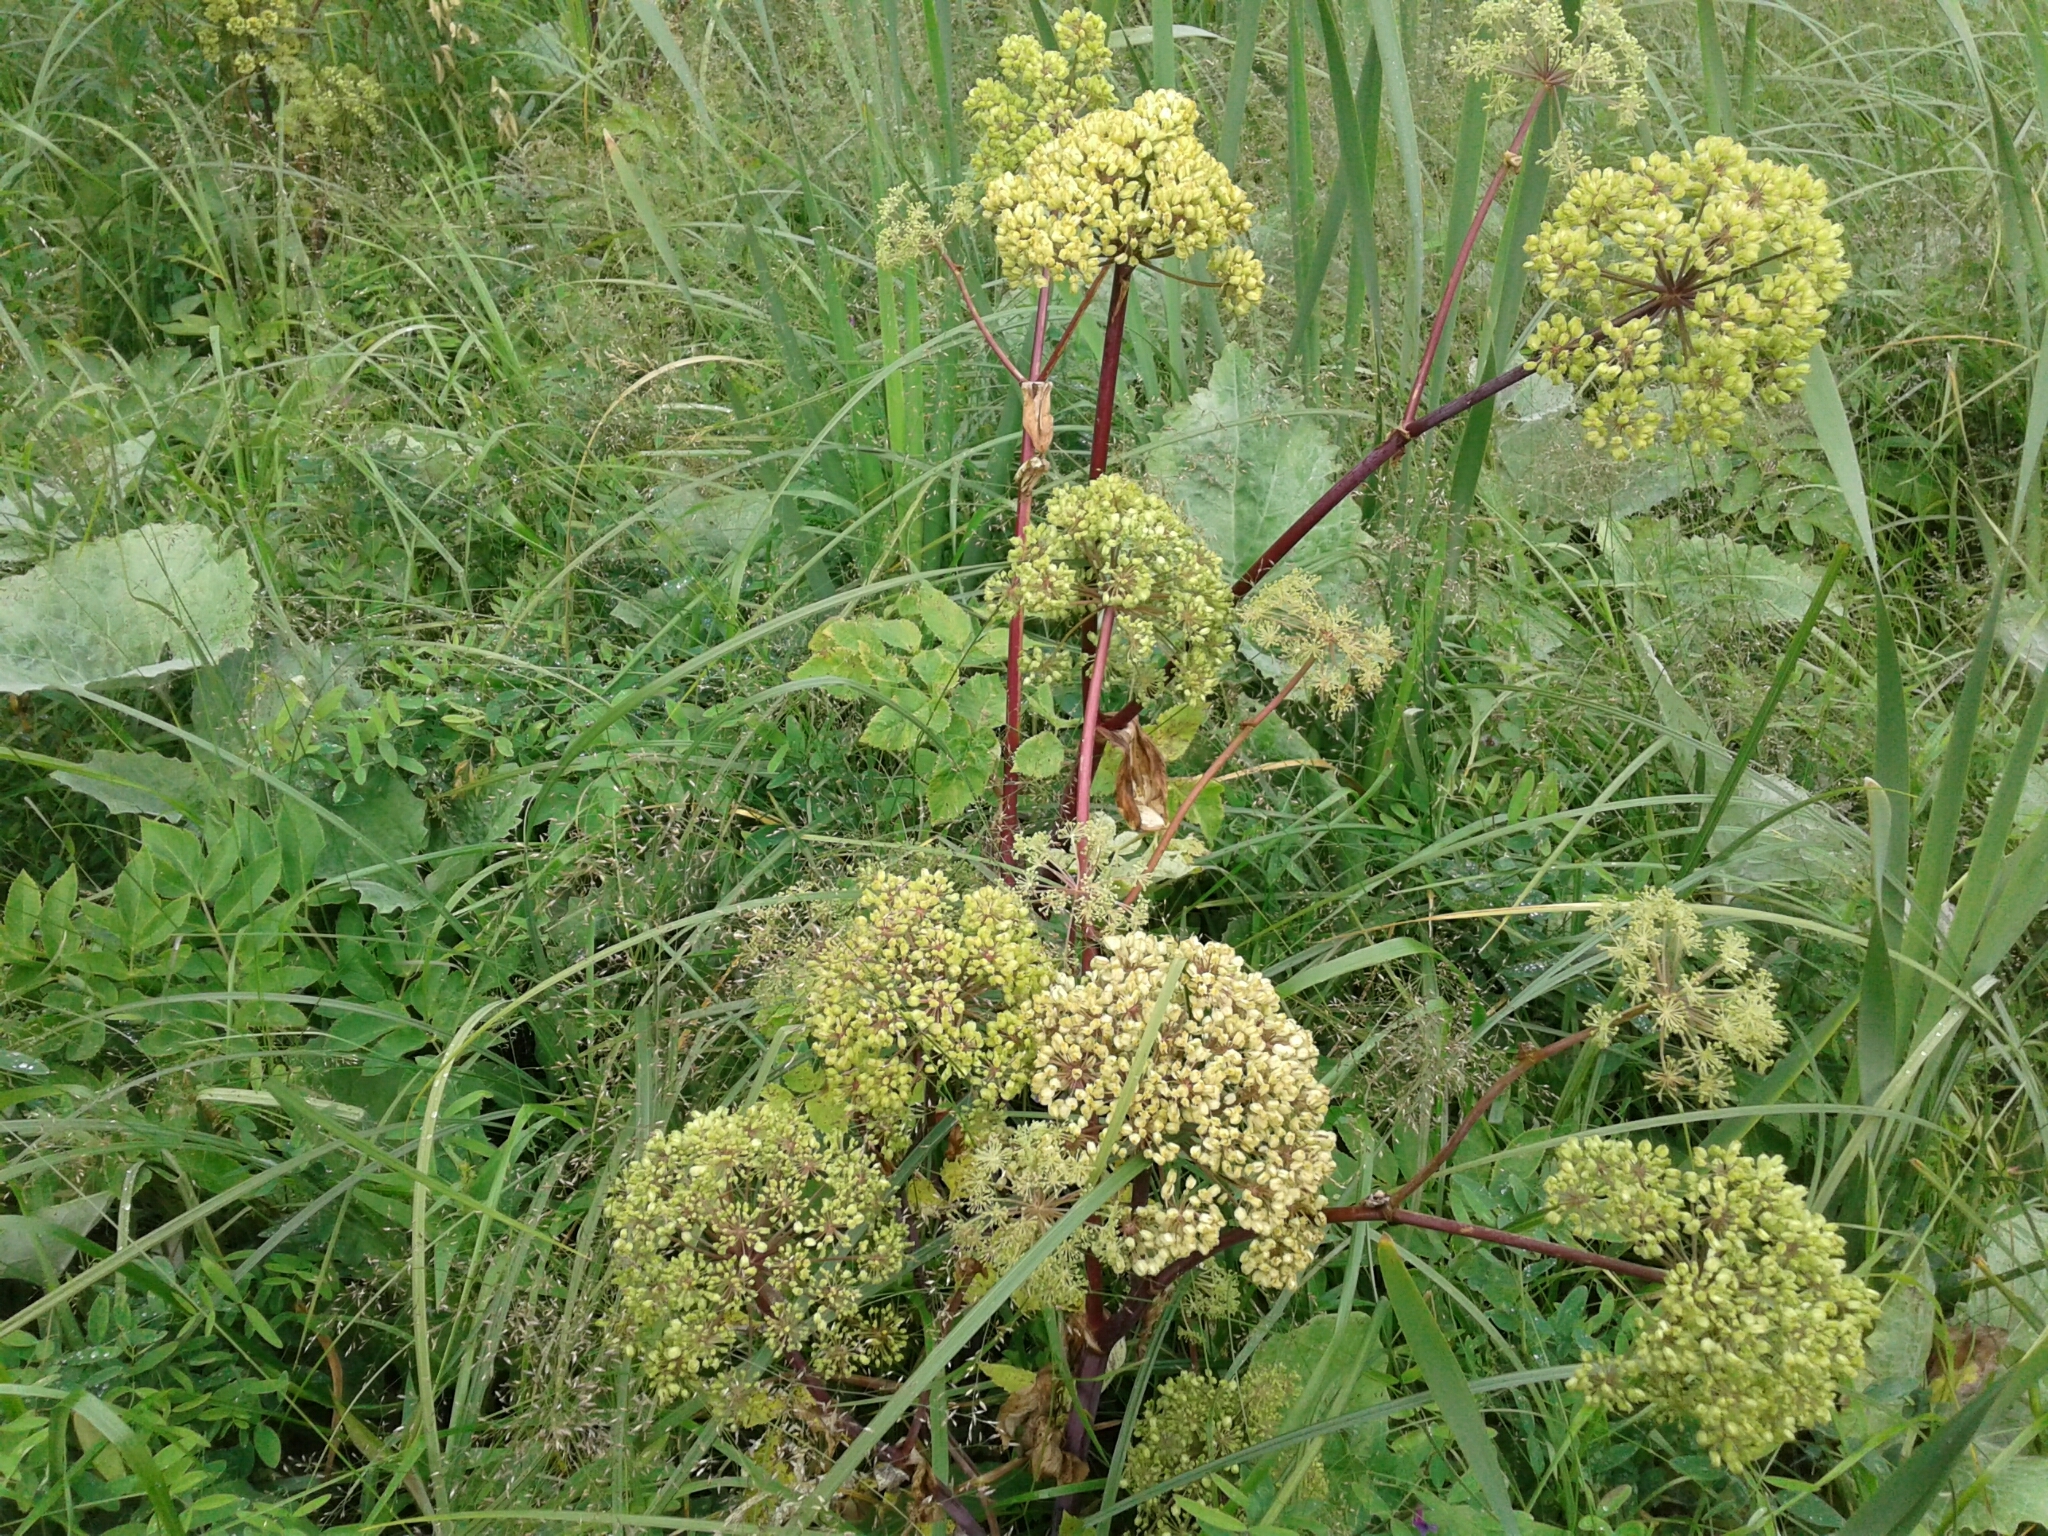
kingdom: Plantae
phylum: Tracheophyta
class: Magnoliopsida
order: Apiales
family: Apiaceae
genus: Angelica
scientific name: Angelica atropurpurea
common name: Great angelica
